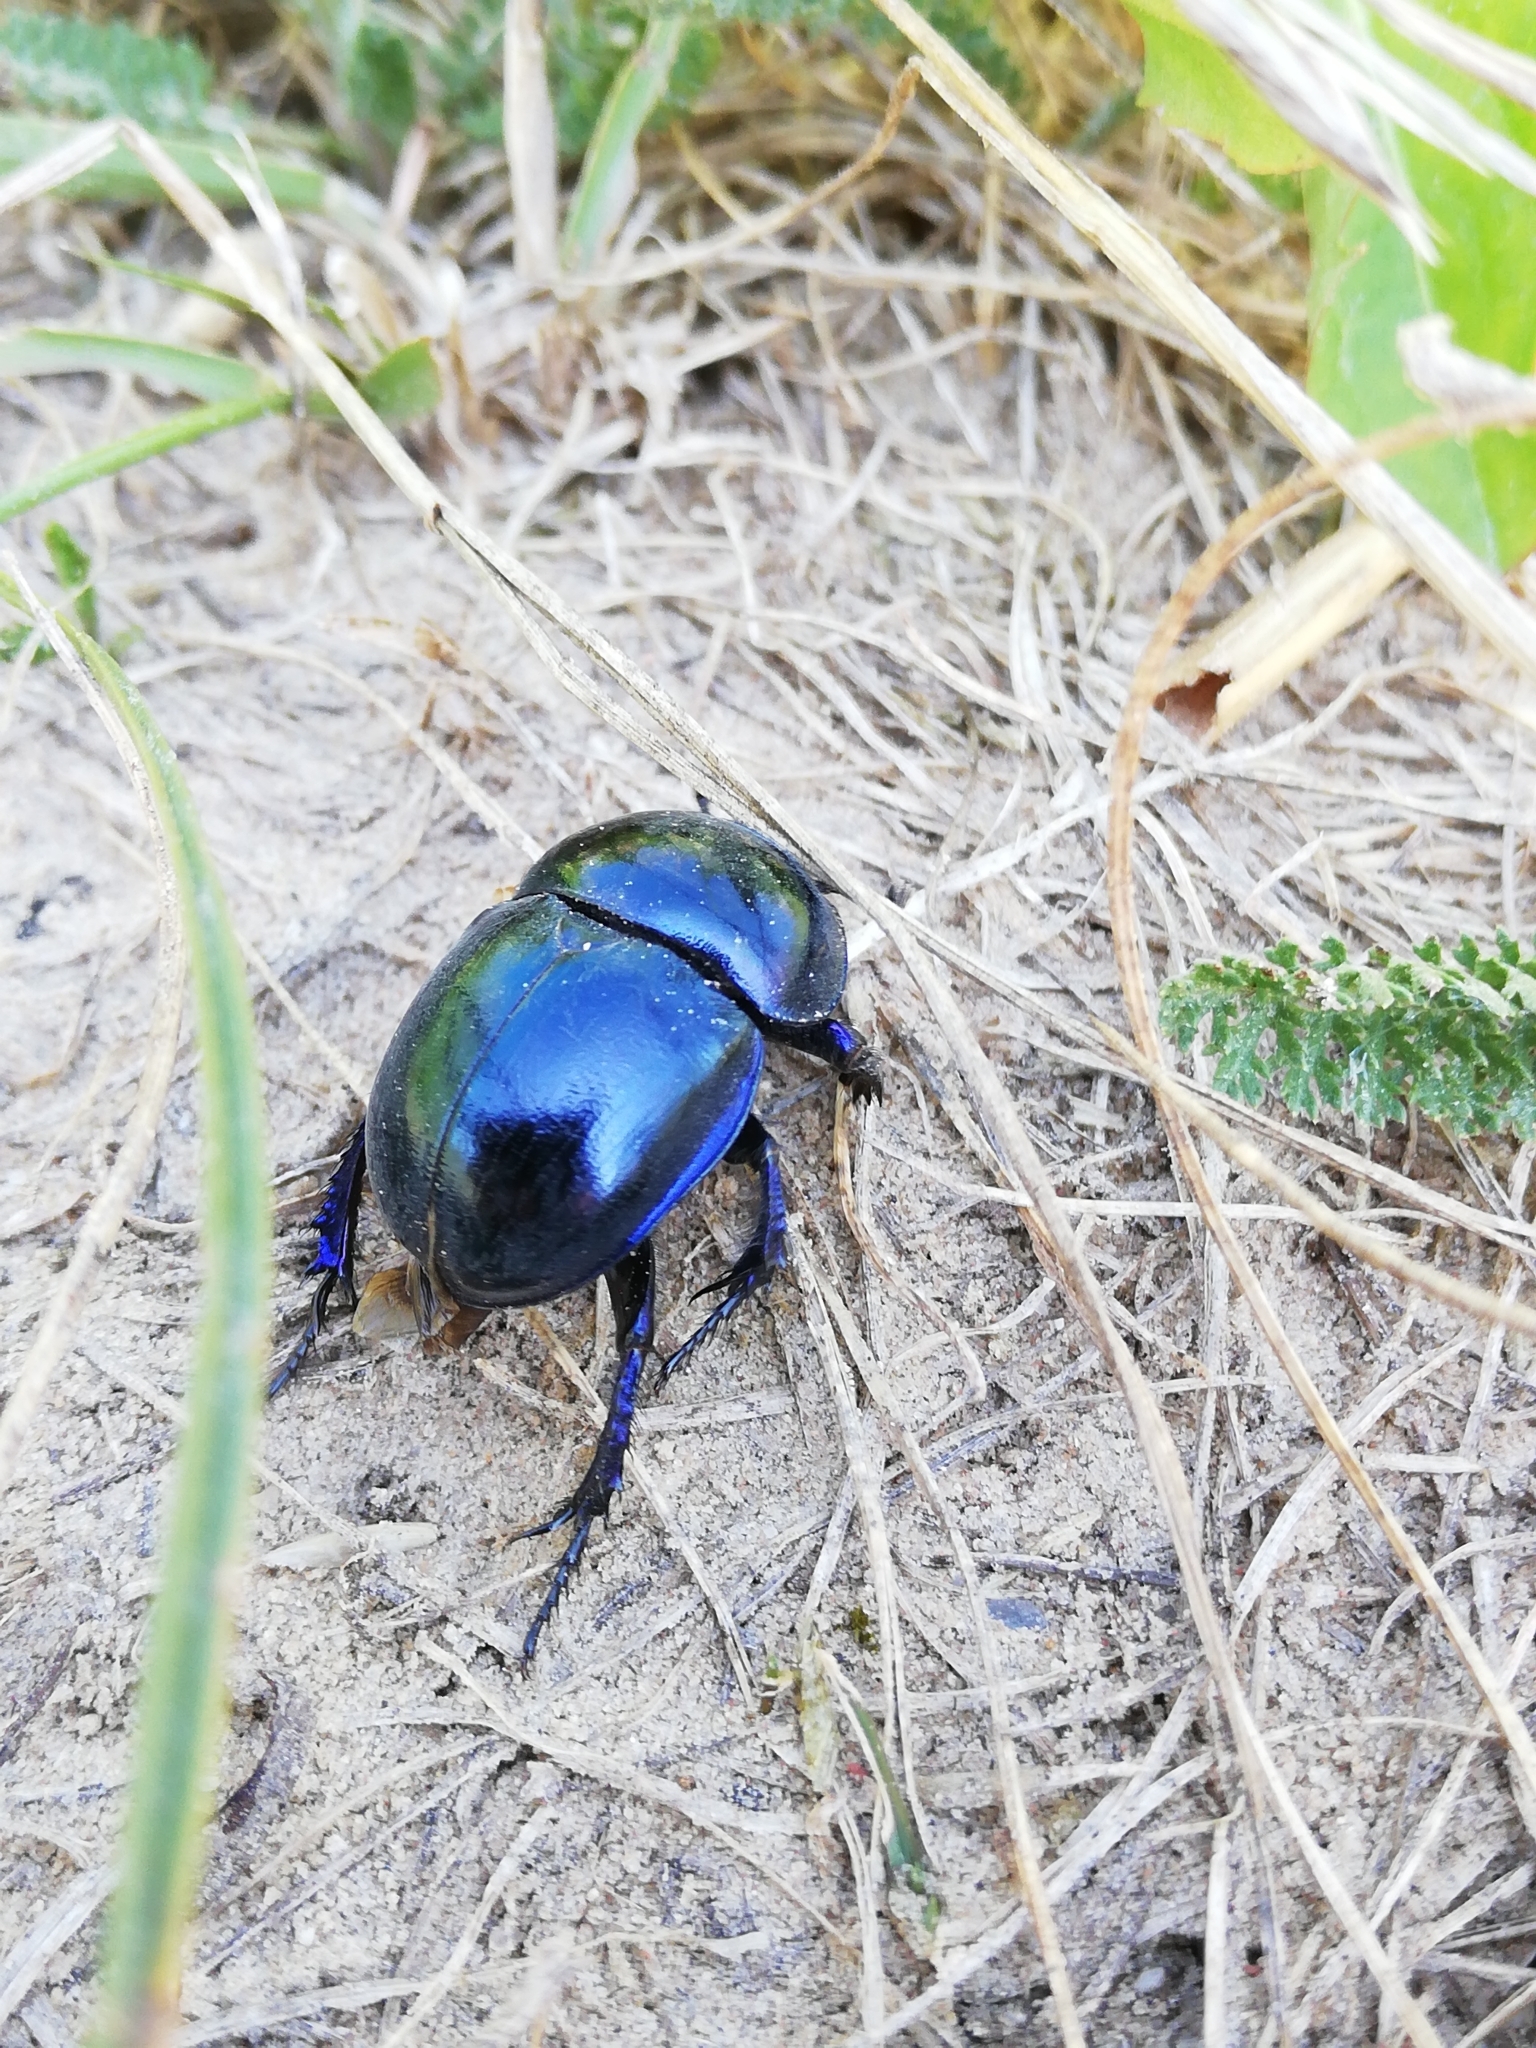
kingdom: Animalia
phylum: Arthropoda
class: Insecta
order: Coleoptera
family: Geotrupidae
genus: Trypocopris
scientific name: Trypocopris vernalis
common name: Spring dumbledor
